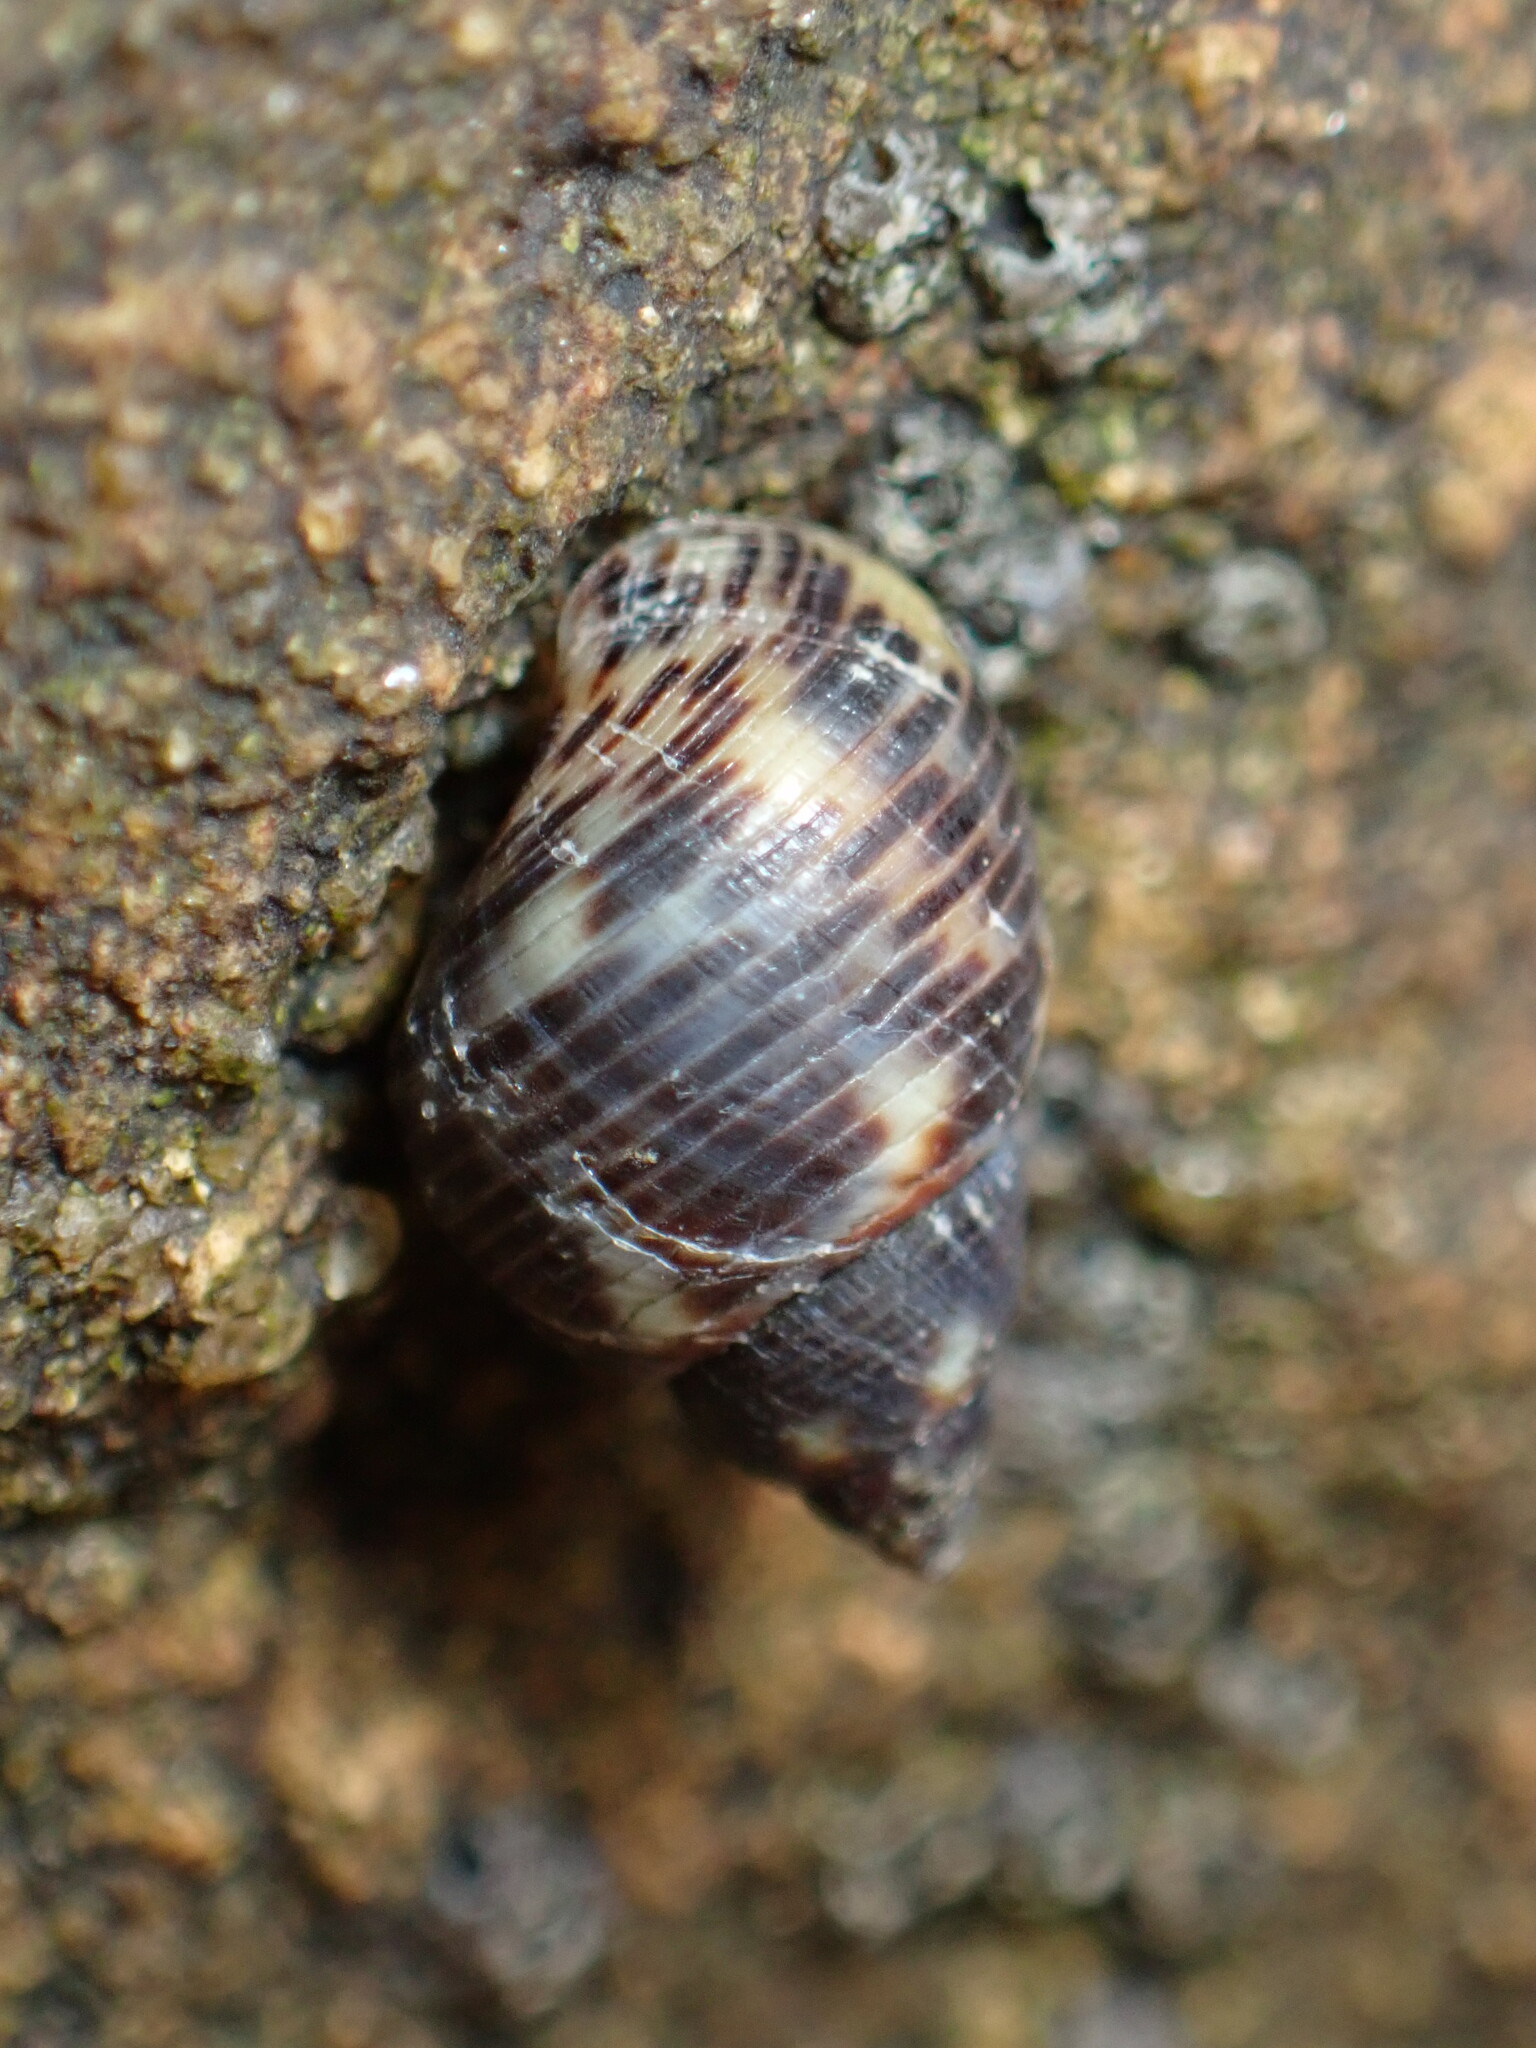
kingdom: Animalia
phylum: Mollusca
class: Gastropoda
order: Littorinimorpha
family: Littorinidae
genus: Littoraria
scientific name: Littoraria articulata
